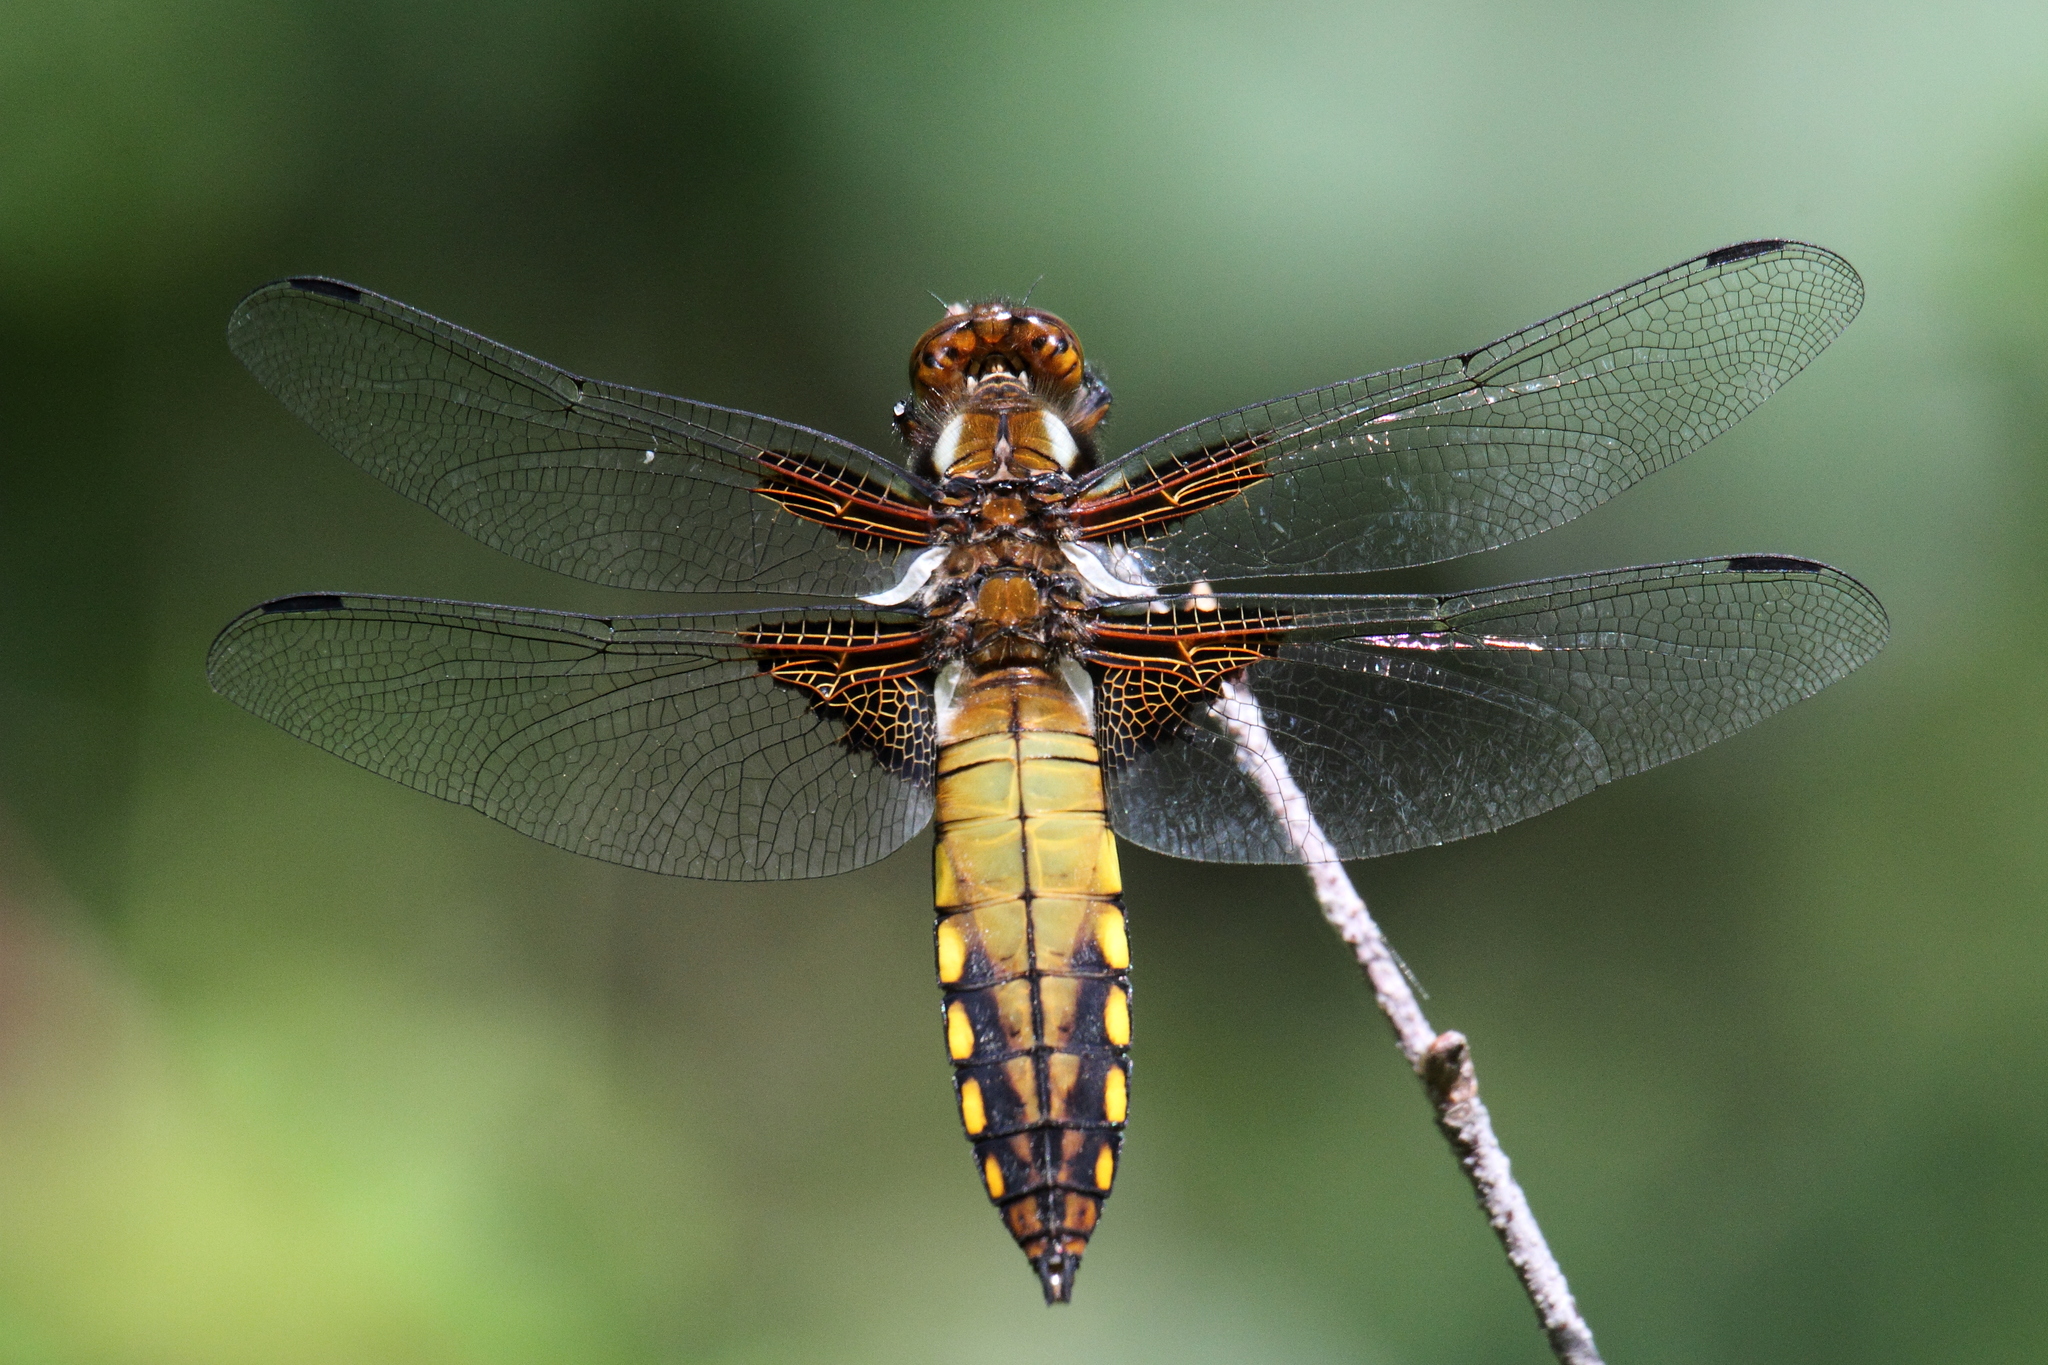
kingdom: Animalia
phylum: Arthropoda
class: Insecta
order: Odonata
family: Libellulidae
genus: Libellula
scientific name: Libellula depressa
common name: Broad-bodied chaser
